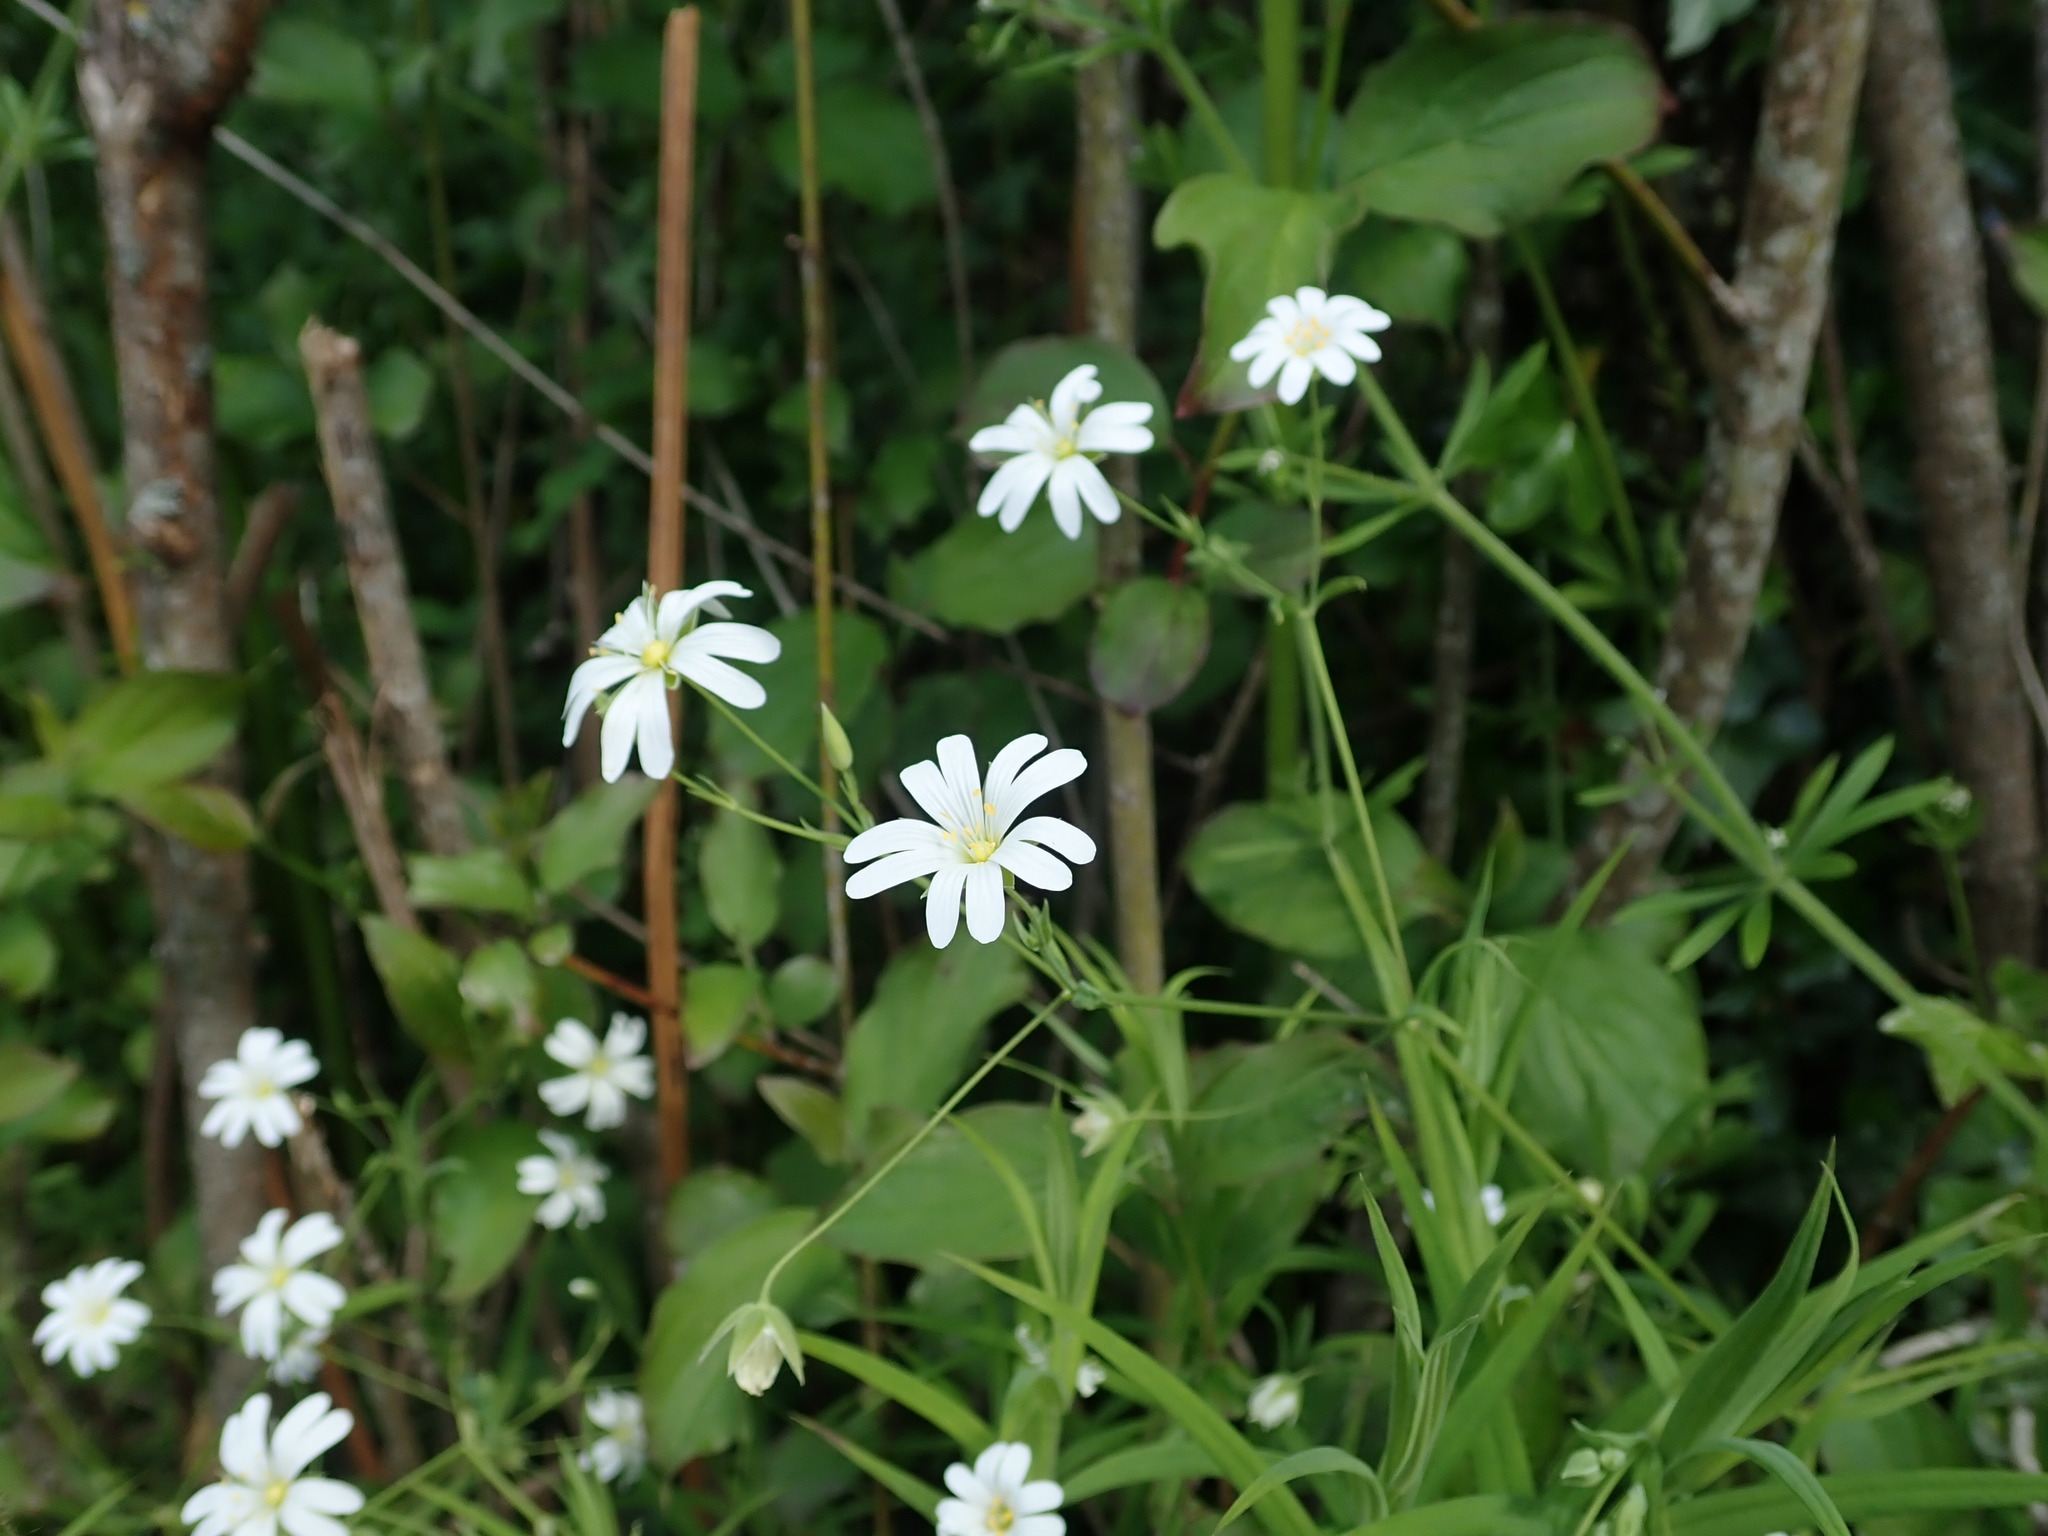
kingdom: Plantae
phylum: Tracheophyta
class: Magnoliopsida
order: Caryophyllales
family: Caryophyllaceae
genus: Rabelera
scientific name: Rabelera holostea
